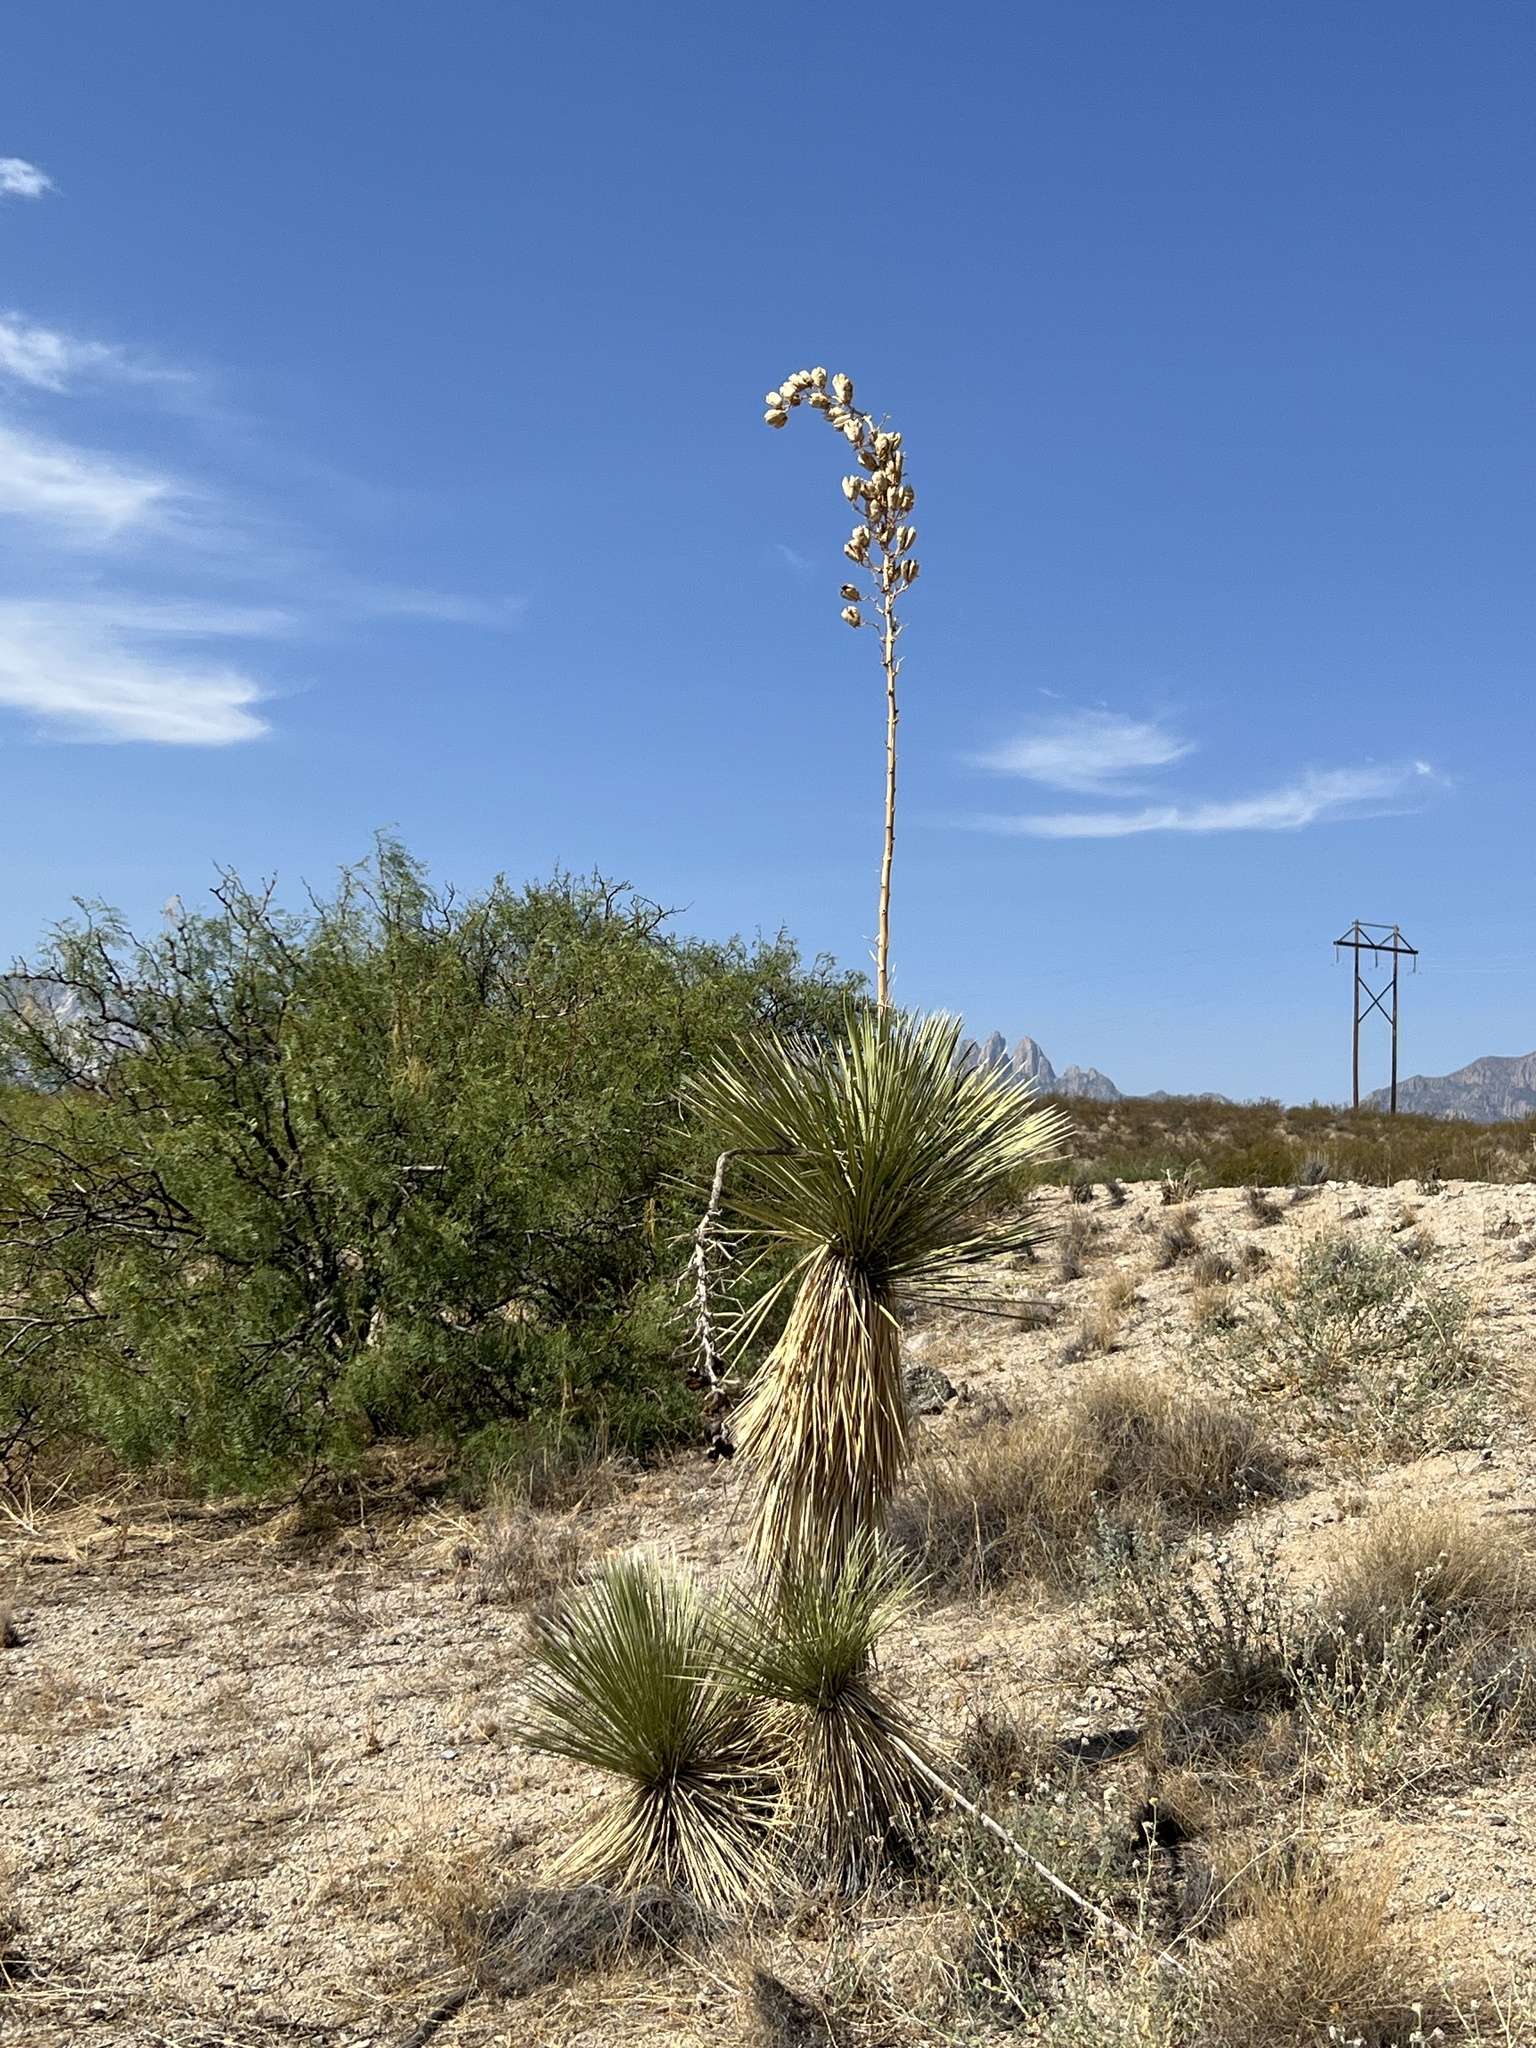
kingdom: Plantae
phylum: Tracheophyta
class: Liliopsida
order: Asparagales
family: Asparagaceae
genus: Yucca
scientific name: Yucca elata
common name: Palmella
